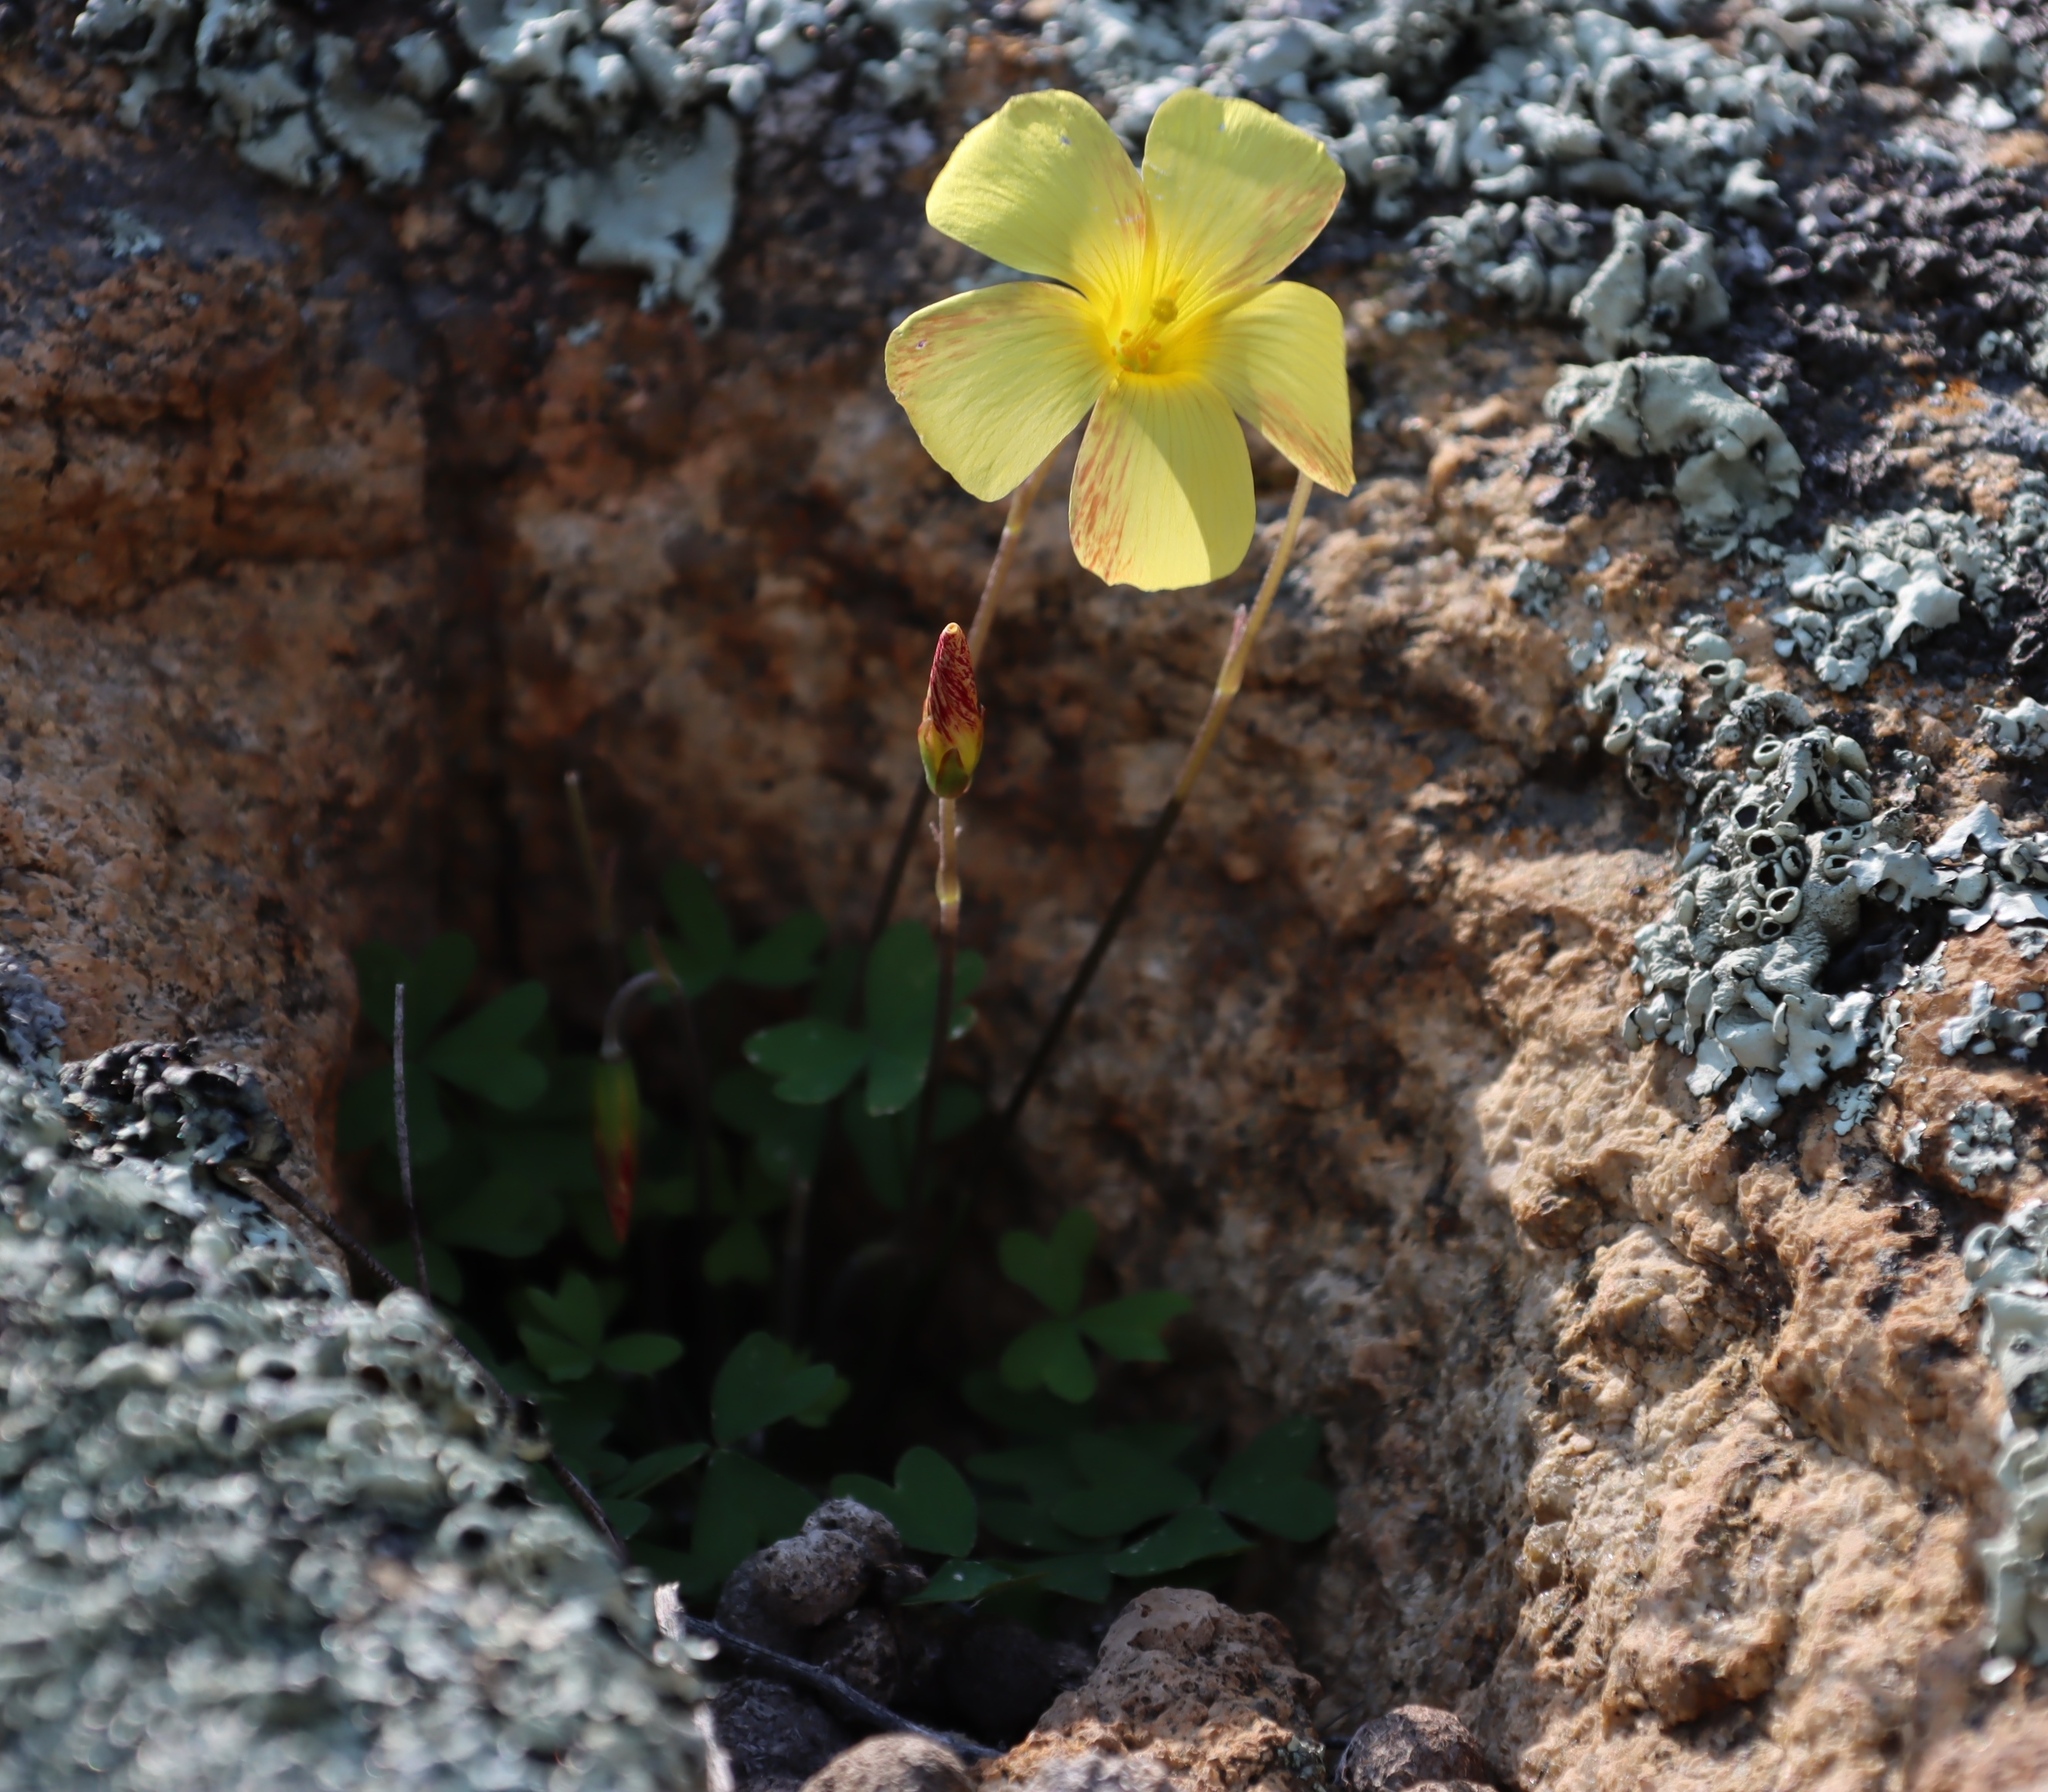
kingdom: Plantae
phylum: Tracheophyta
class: Magnoliopsida
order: Oxalidales
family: Oxalidaceae
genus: Oxalis
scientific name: Oxalis obtusa
